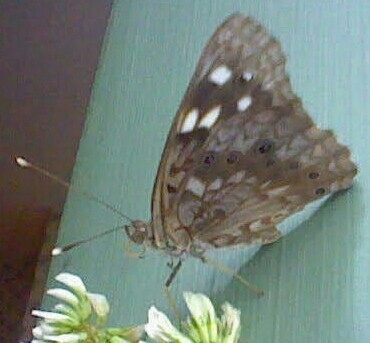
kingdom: Animalia
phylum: Arthropoda
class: Insecta
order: Lepidoptera
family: Nymphalidae
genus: Asterocampa
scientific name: Asterocampa celtis
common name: Hackberry emperor
